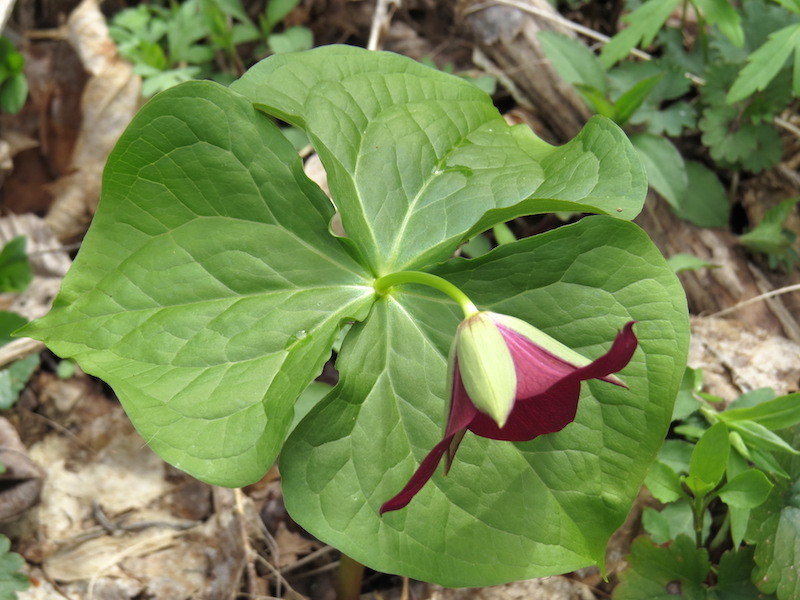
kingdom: Plantae
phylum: Tracheophyta
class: Liliopsida
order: Liliales
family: Melanthiaceae
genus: Trillium
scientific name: Trillium erectum
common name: Purple trillium
